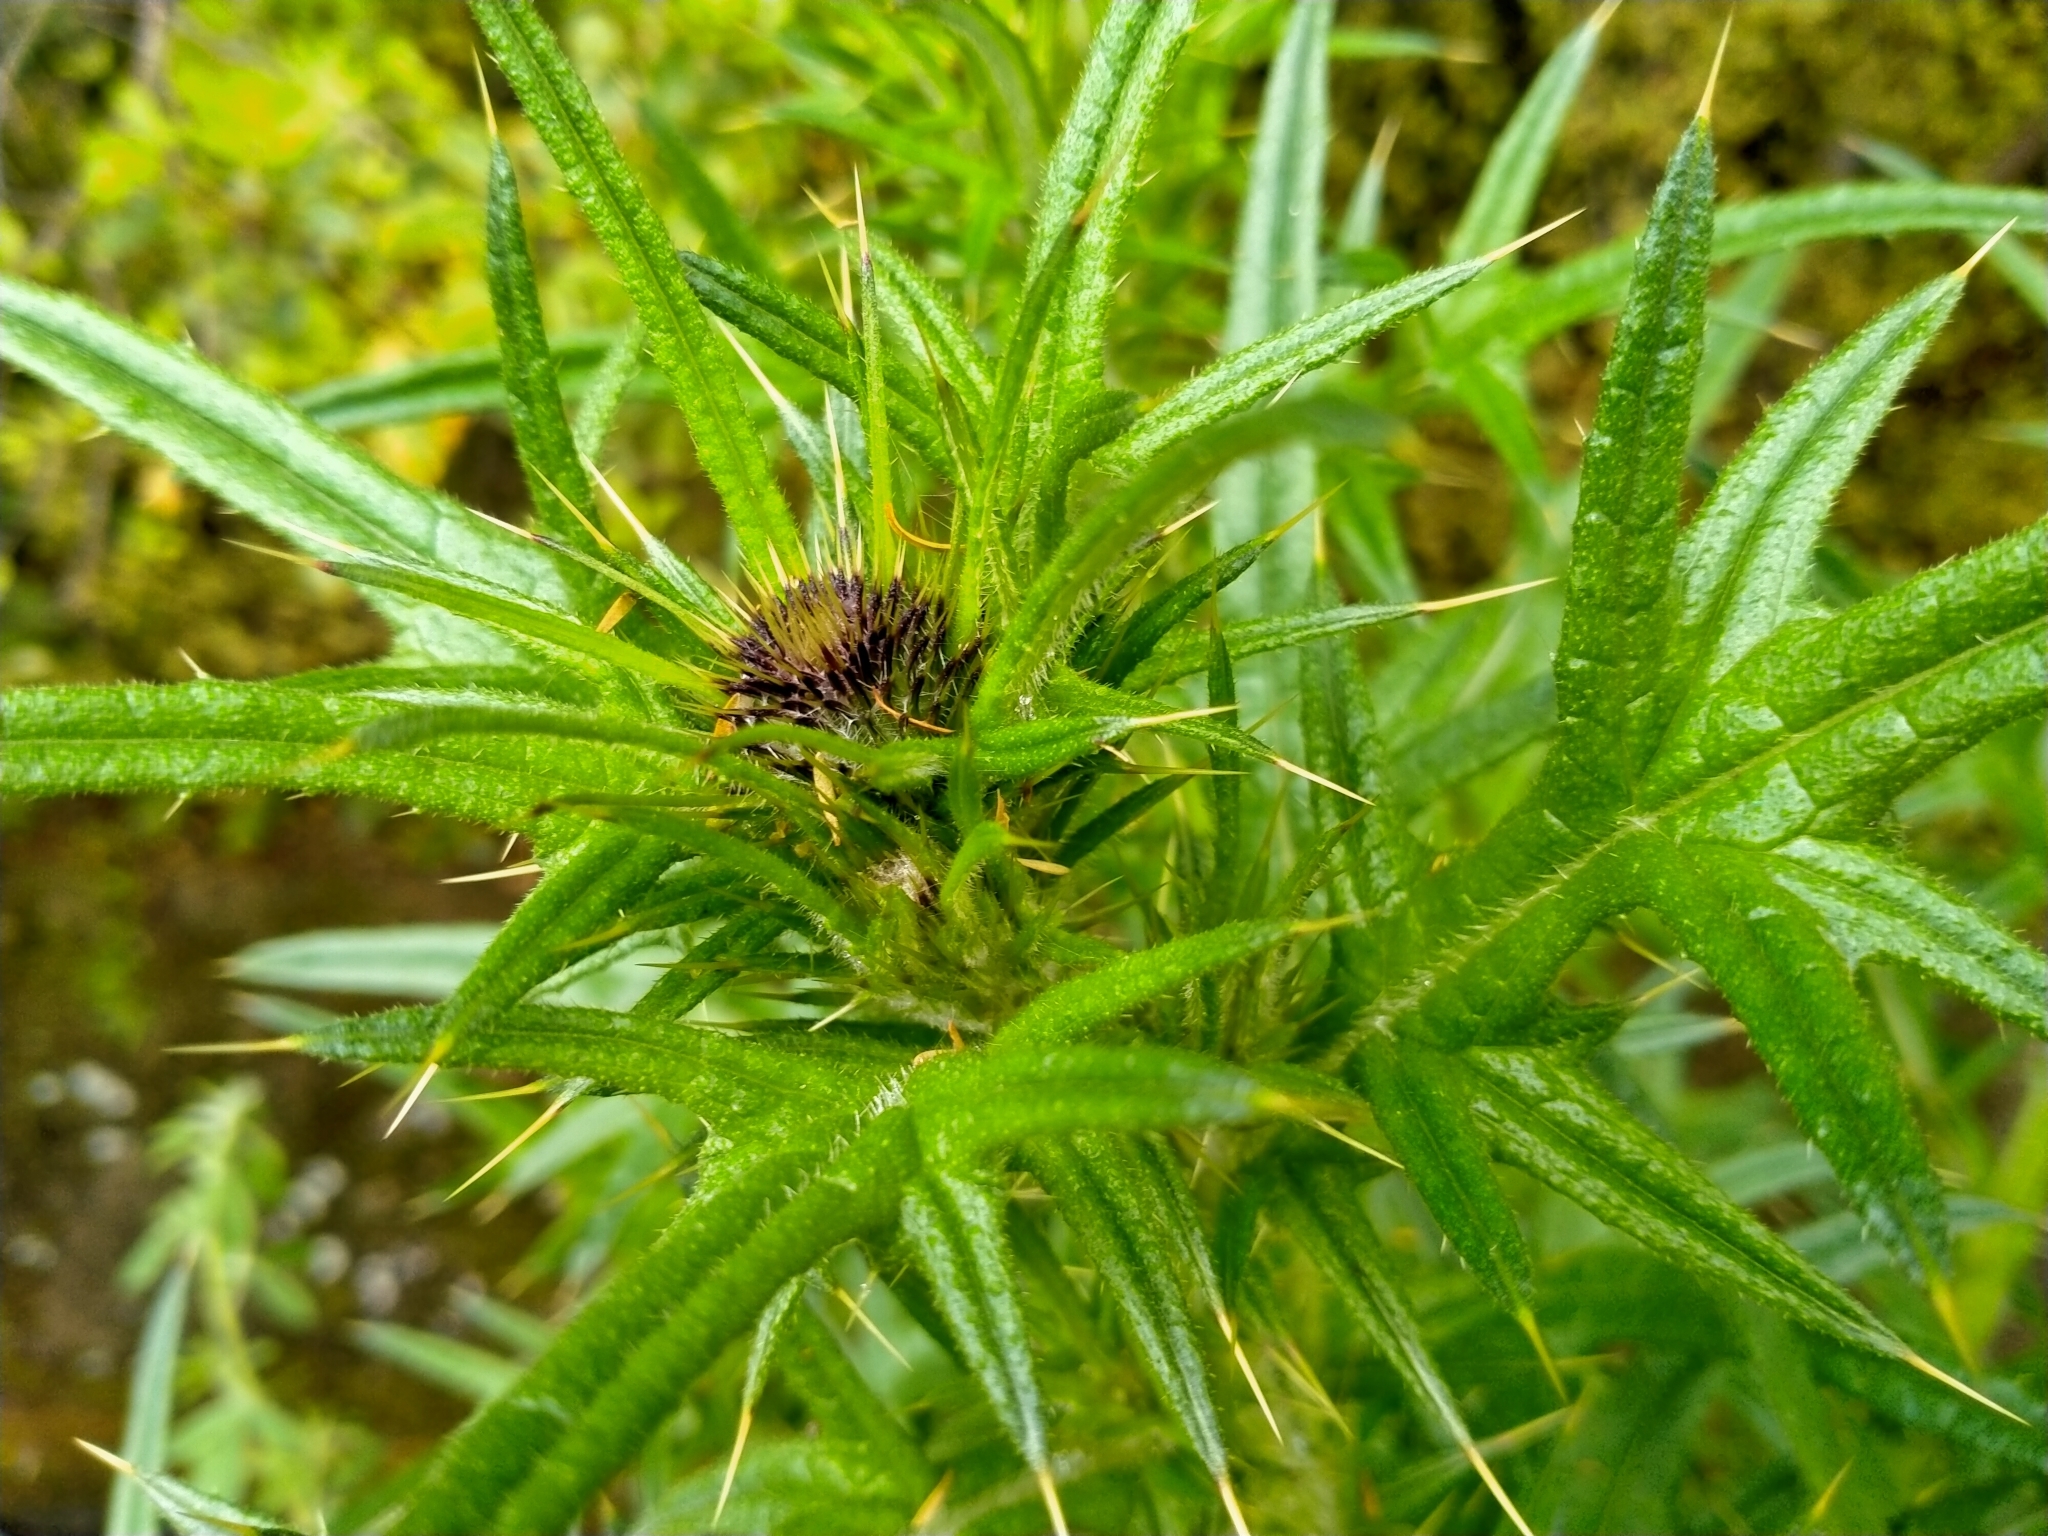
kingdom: Plantae
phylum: Tracheophyta
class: Magnoliopsida
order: Asterales
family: Asteraceae
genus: Cirsium
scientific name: Cirsium vulgare
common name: Bull thistle
